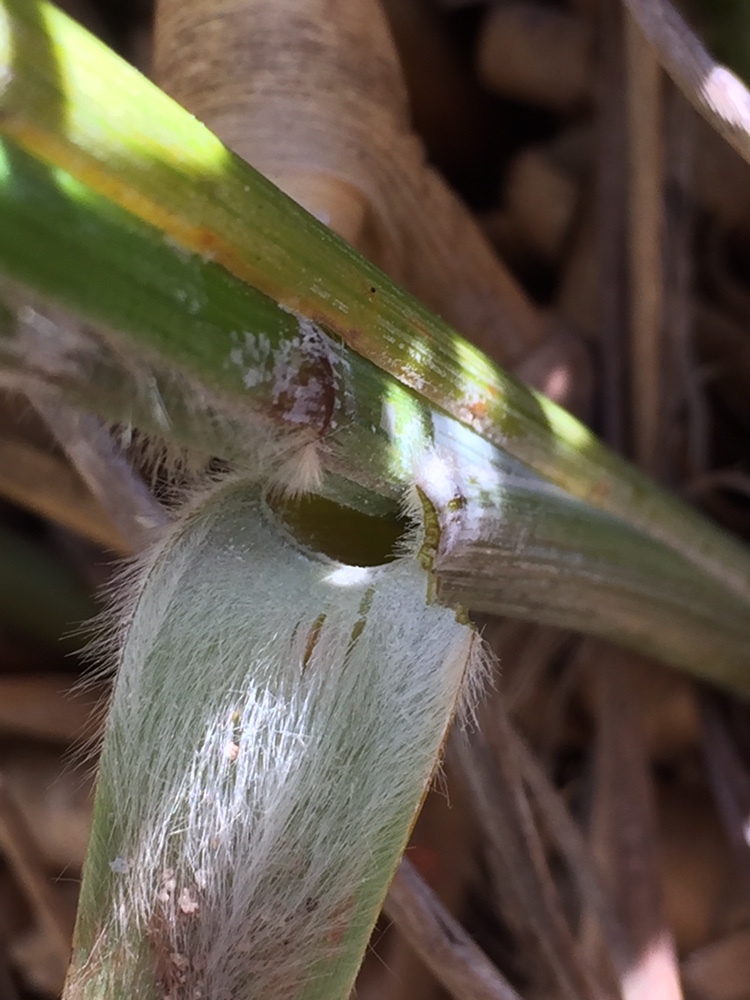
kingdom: Plantae
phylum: Tracheophyta
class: Liliopsida
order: Poales
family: Poaceae
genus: Chionochloa
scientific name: Chionochloa flavescens
